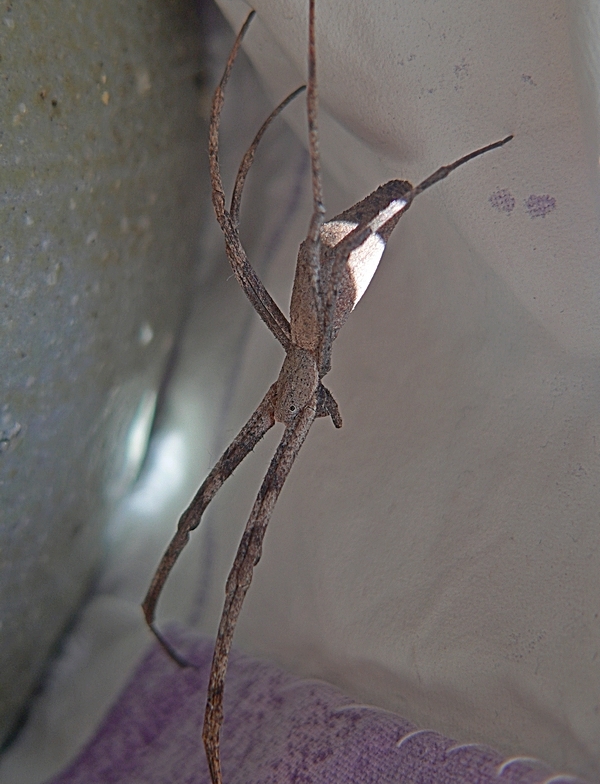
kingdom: Animalia
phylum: Arthropoda
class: Arachnida
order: Araneae
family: Deinopidae
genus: Deinopis
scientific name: Deinopis subrufa
